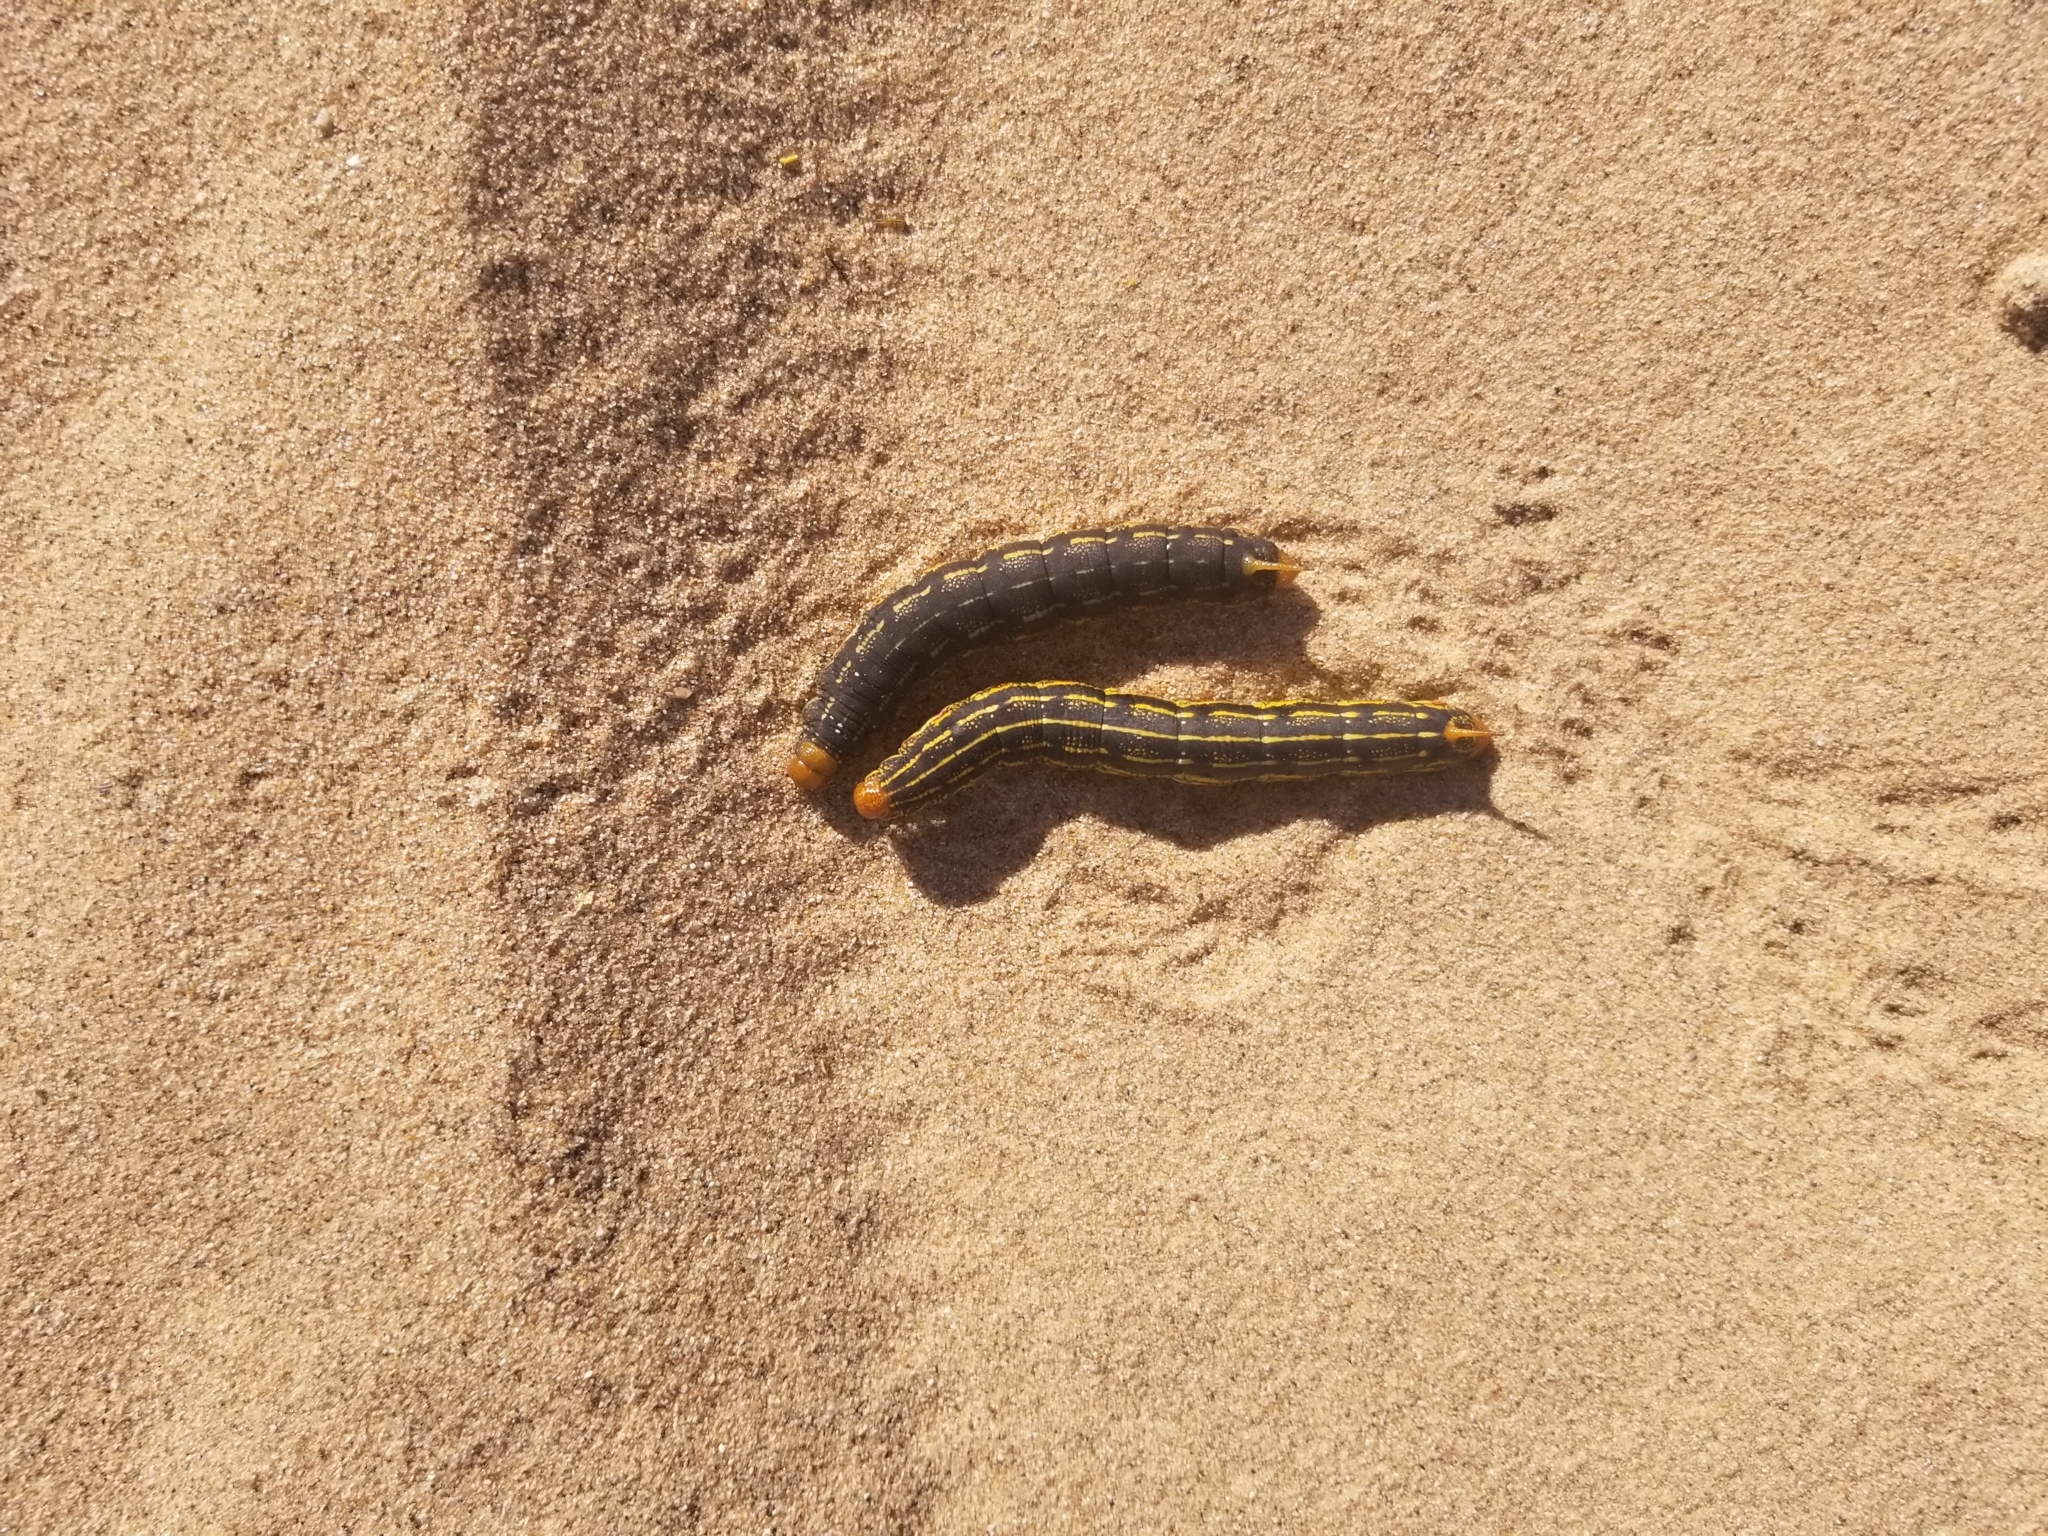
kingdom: Animalia
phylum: Arthropoda
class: Insecta
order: Lepidoptera
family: Sphingidae
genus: Hyles
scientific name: Hyles lineata
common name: White-lined sphinx
